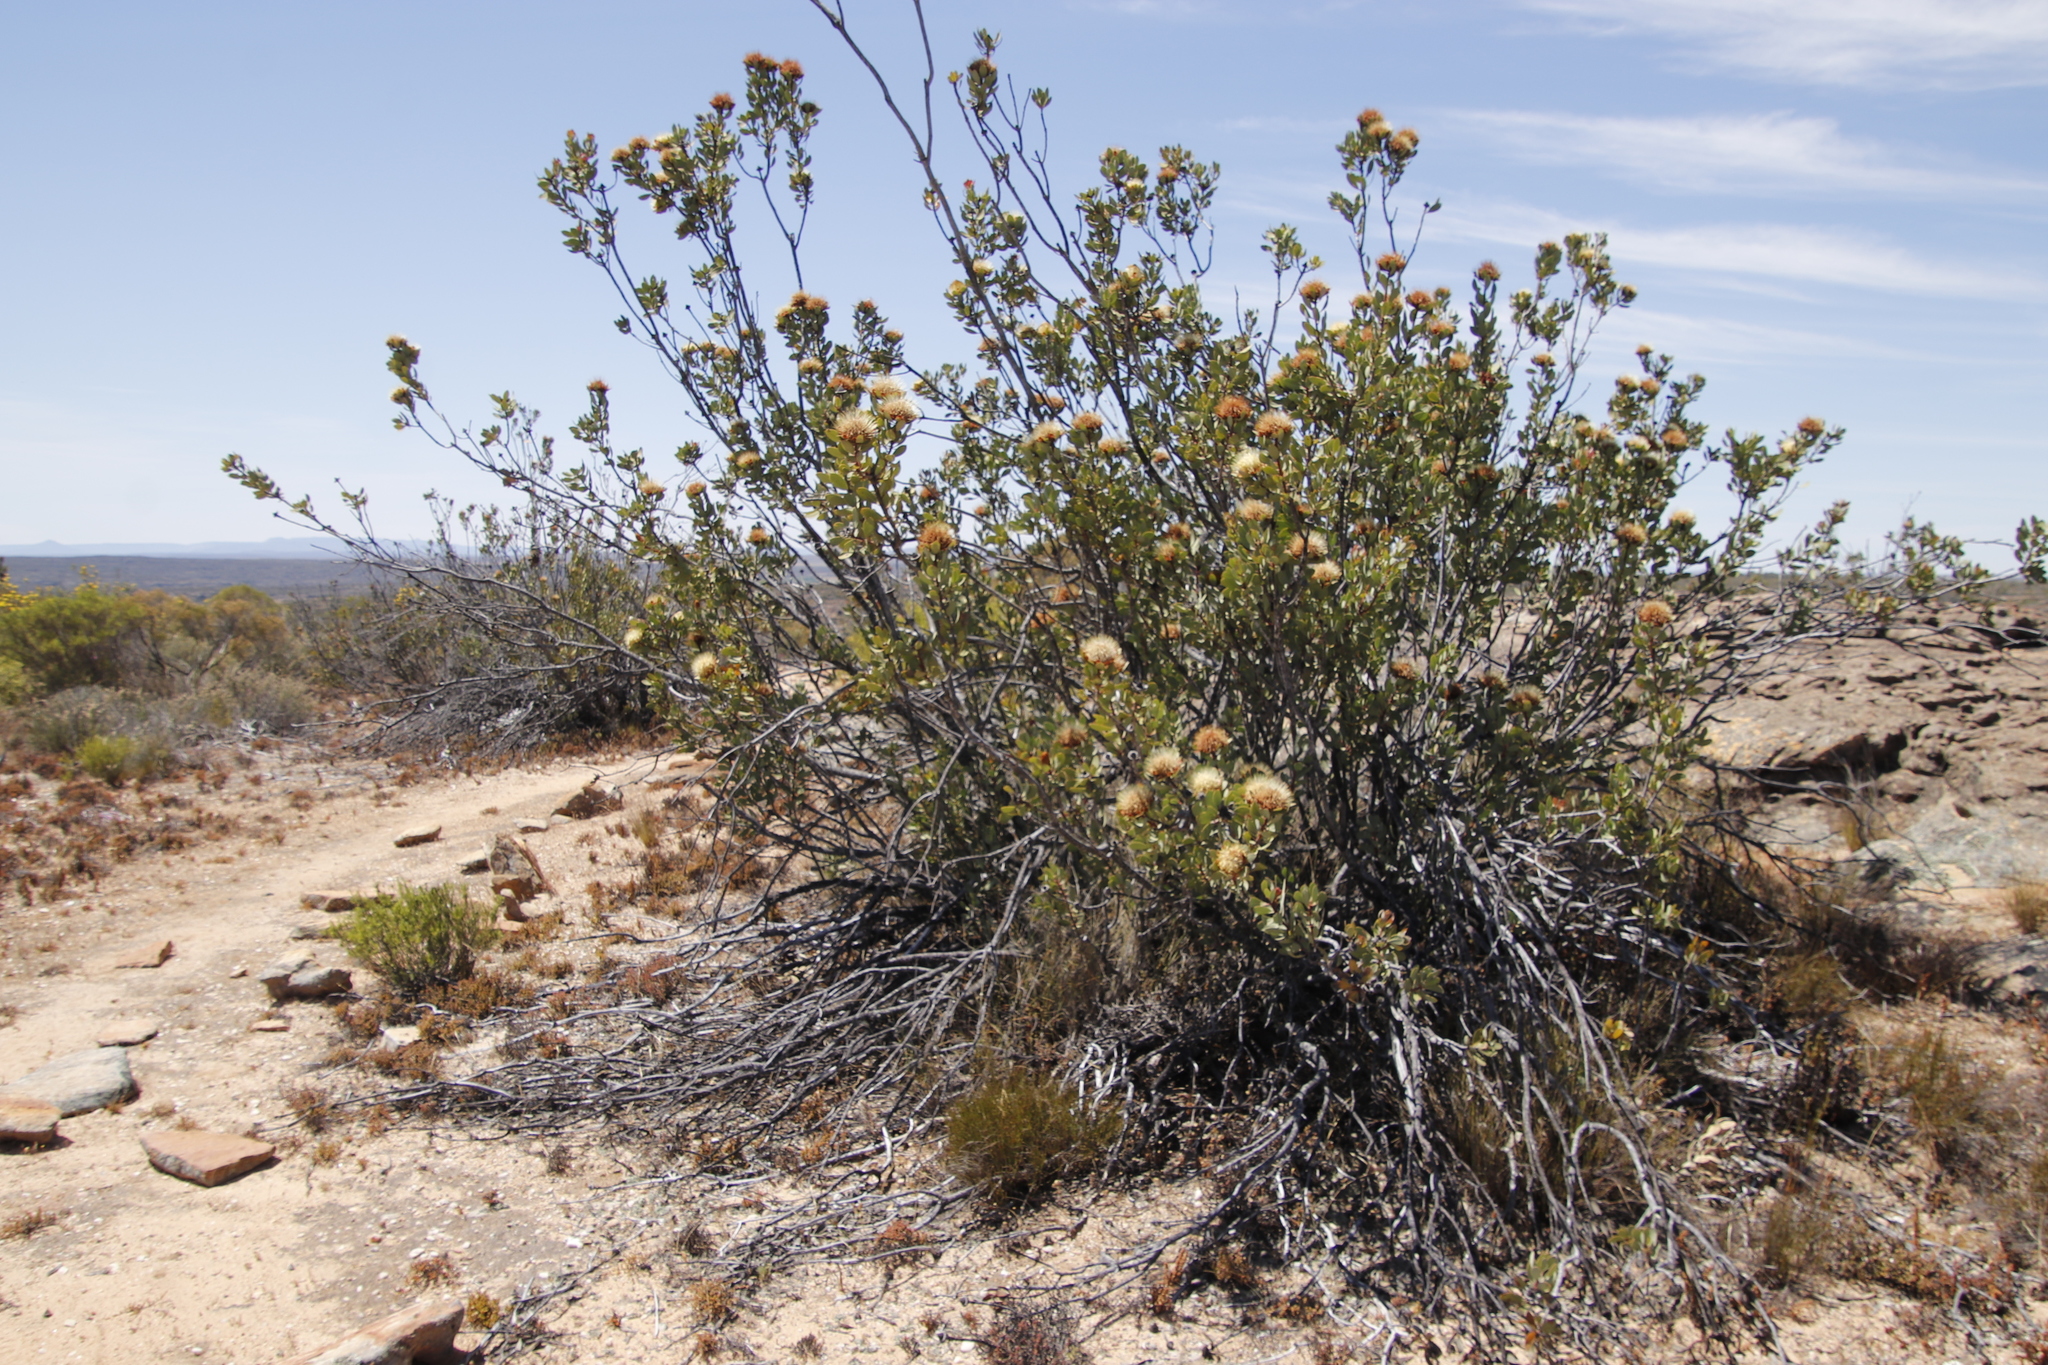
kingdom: Plantae
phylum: Tracheophyta
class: Magnoliopsida
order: Proteales
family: Proteaceae
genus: Protea
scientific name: Protea glabra
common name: Chestnut sugarbush
